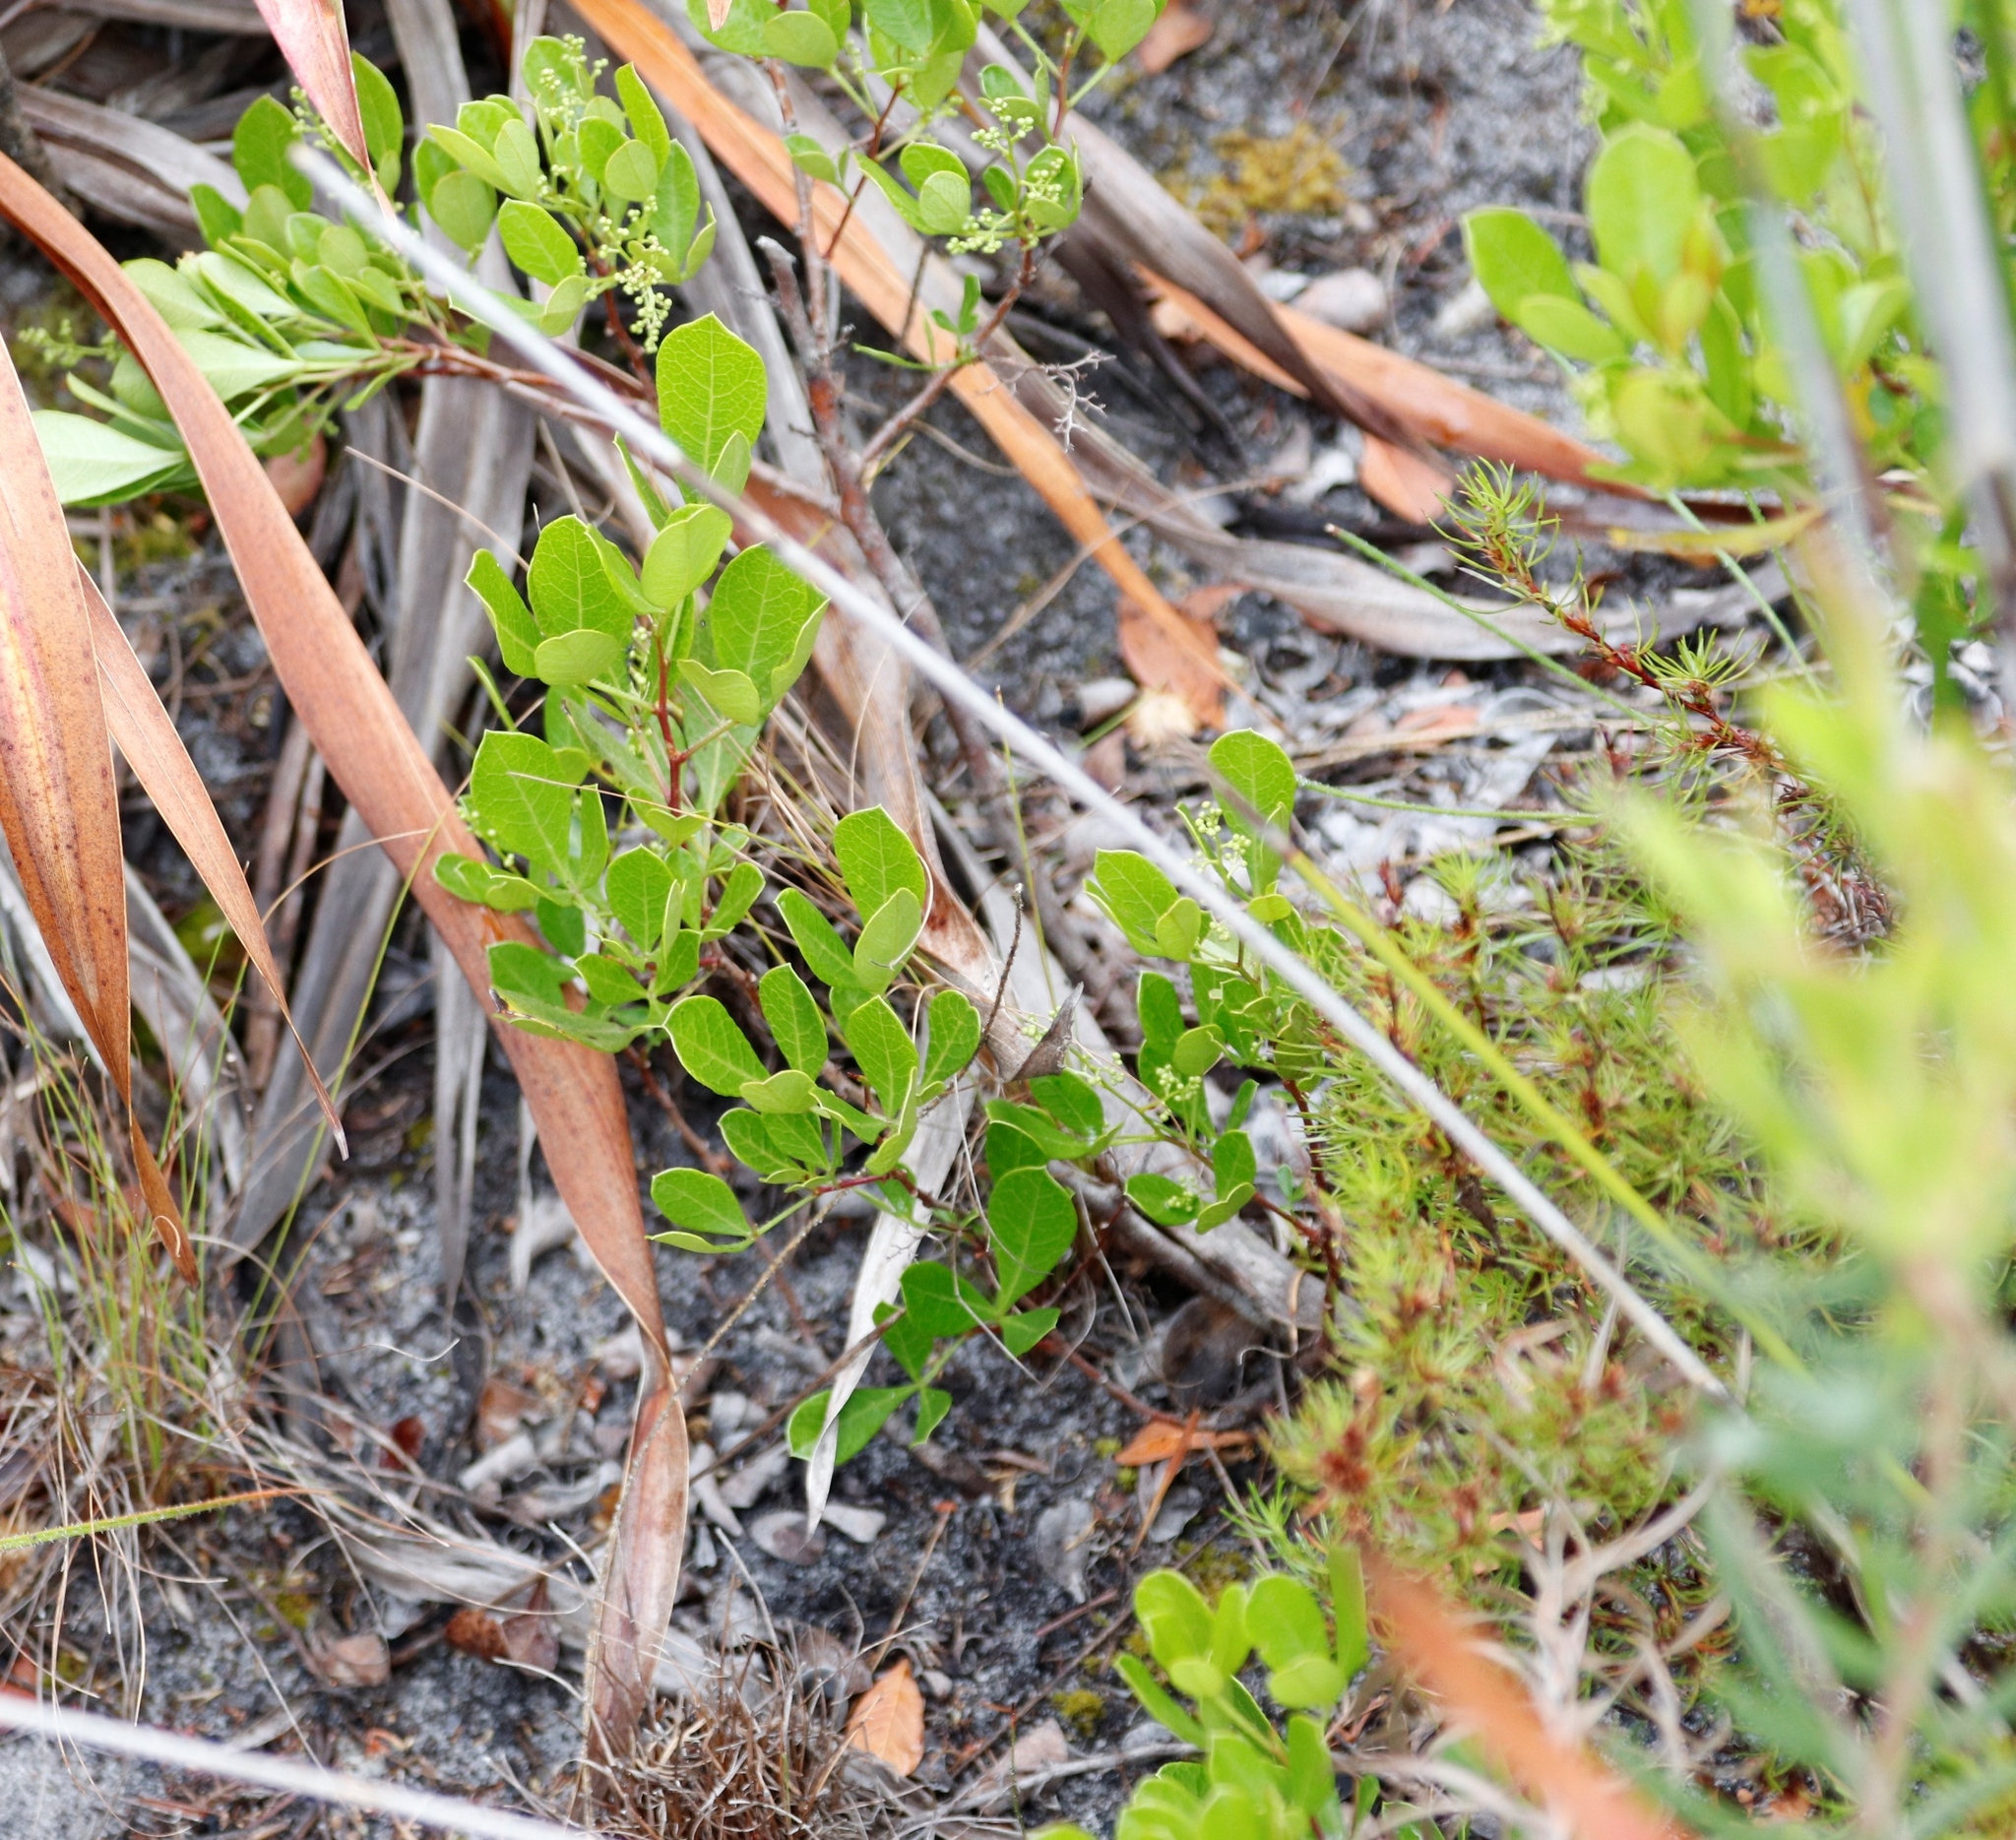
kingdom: Plantae
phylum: Tracheophyta
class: Magnoliopsida
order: Sapindales
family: Anacardiaceae
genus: Searsia
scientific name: Searsia laevigata
